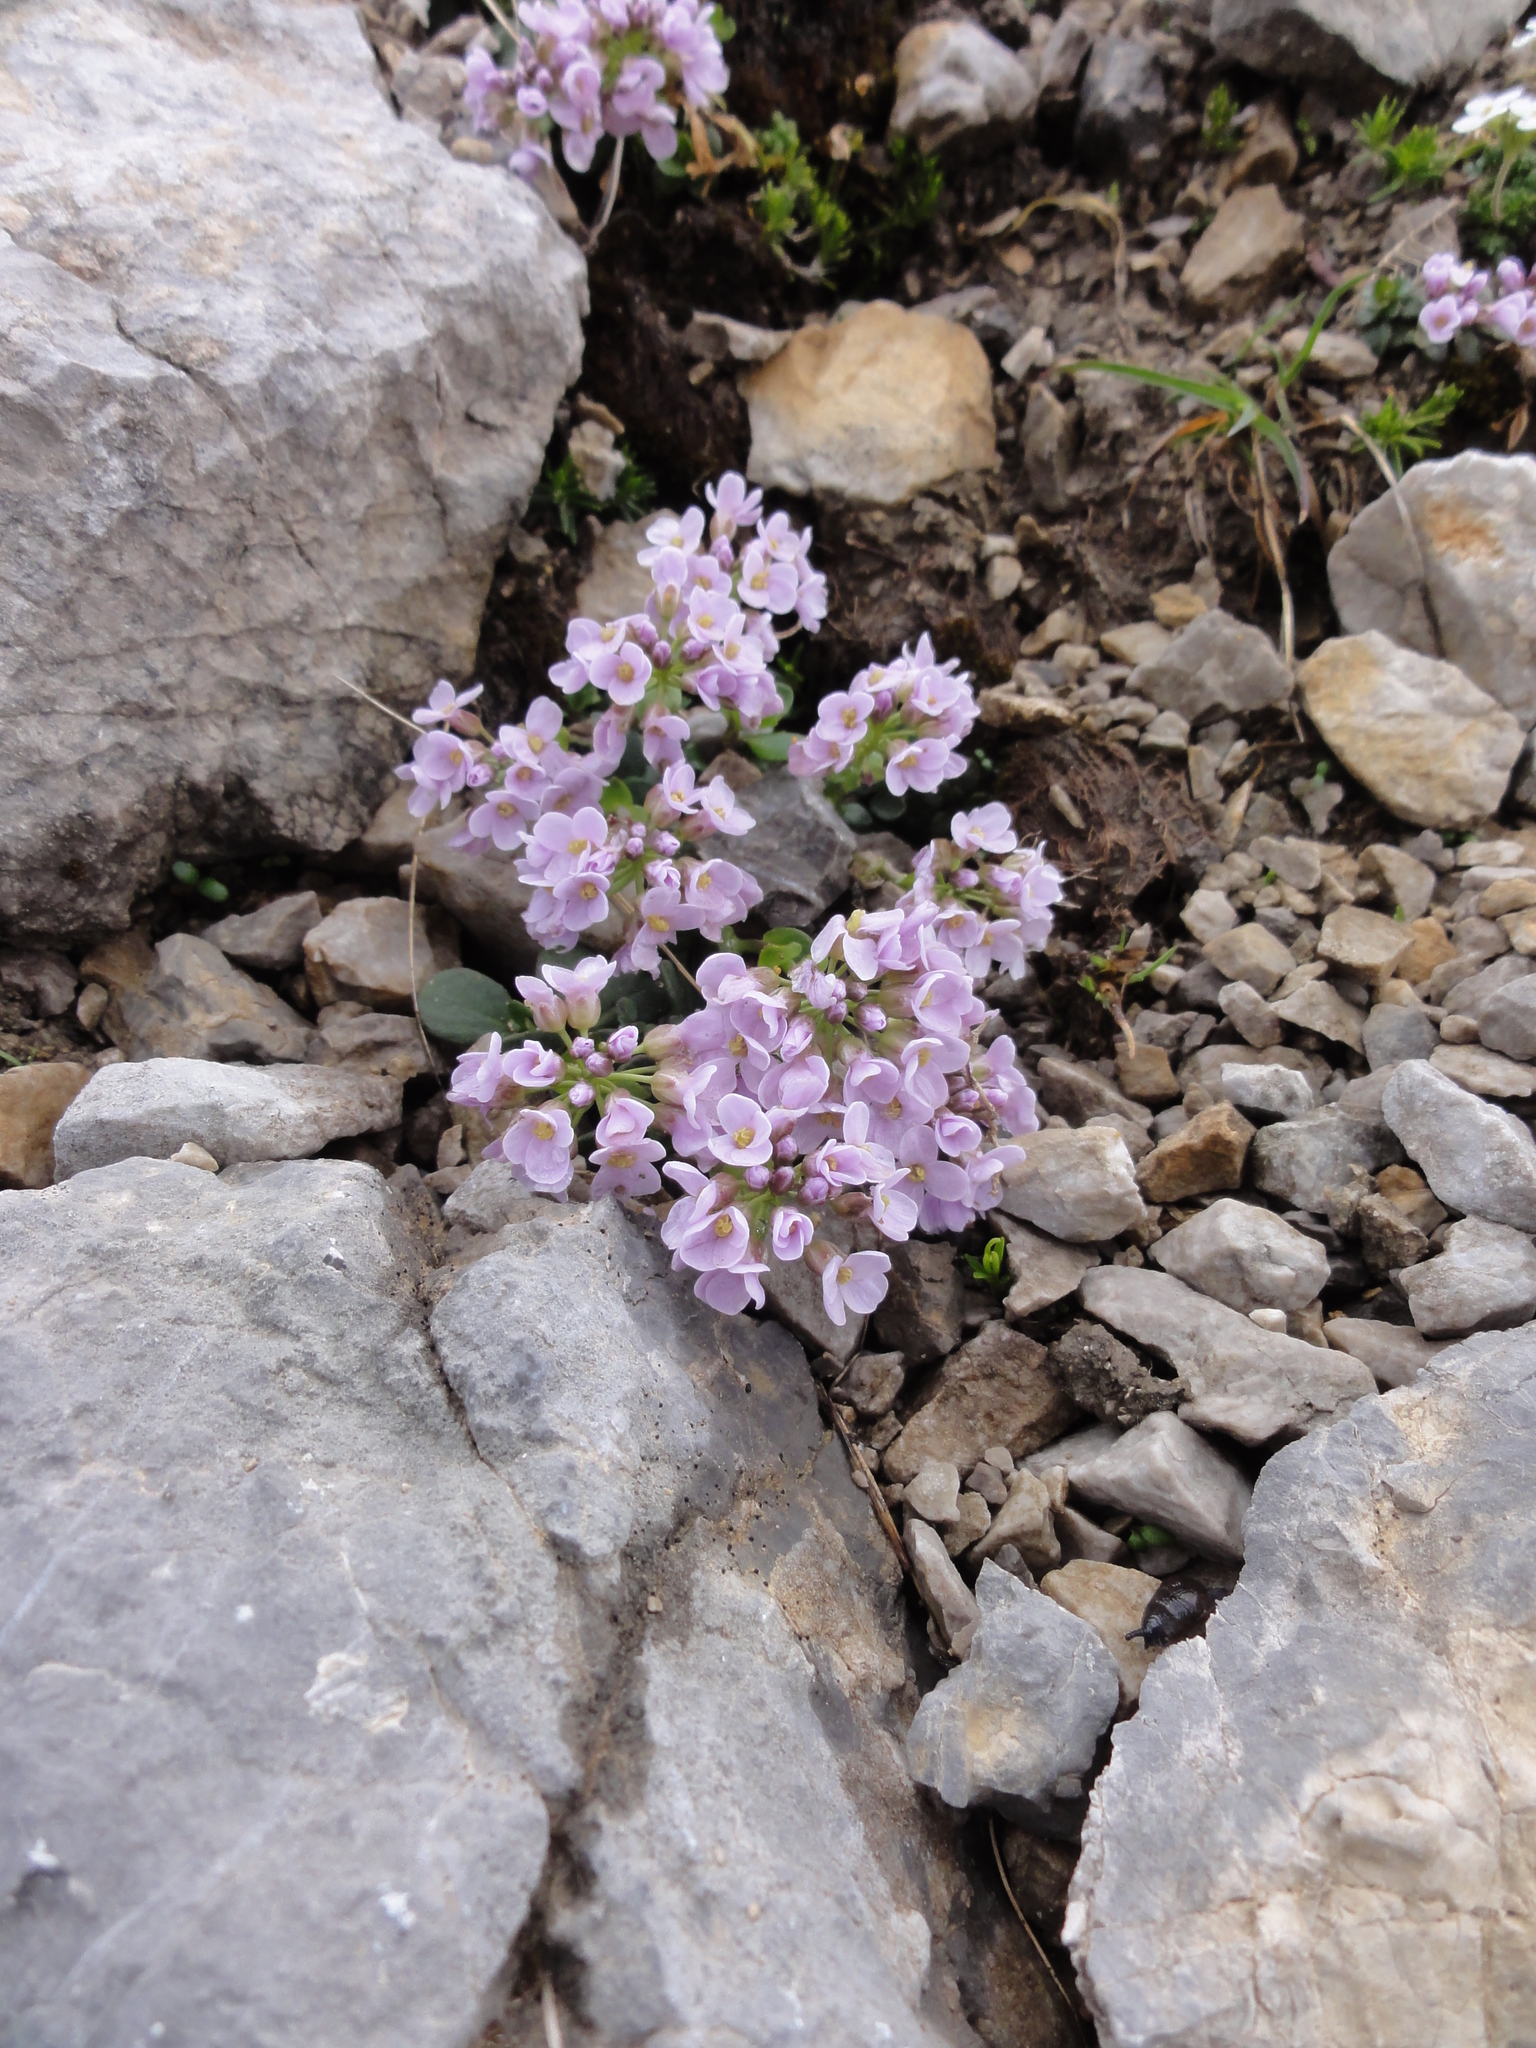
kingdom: Plantae
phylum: Tracheophyta
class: Magnoliopsida
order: Brassicales
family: Brassicaceae
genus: Noccaea
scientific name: Noccaea rotundifolia
